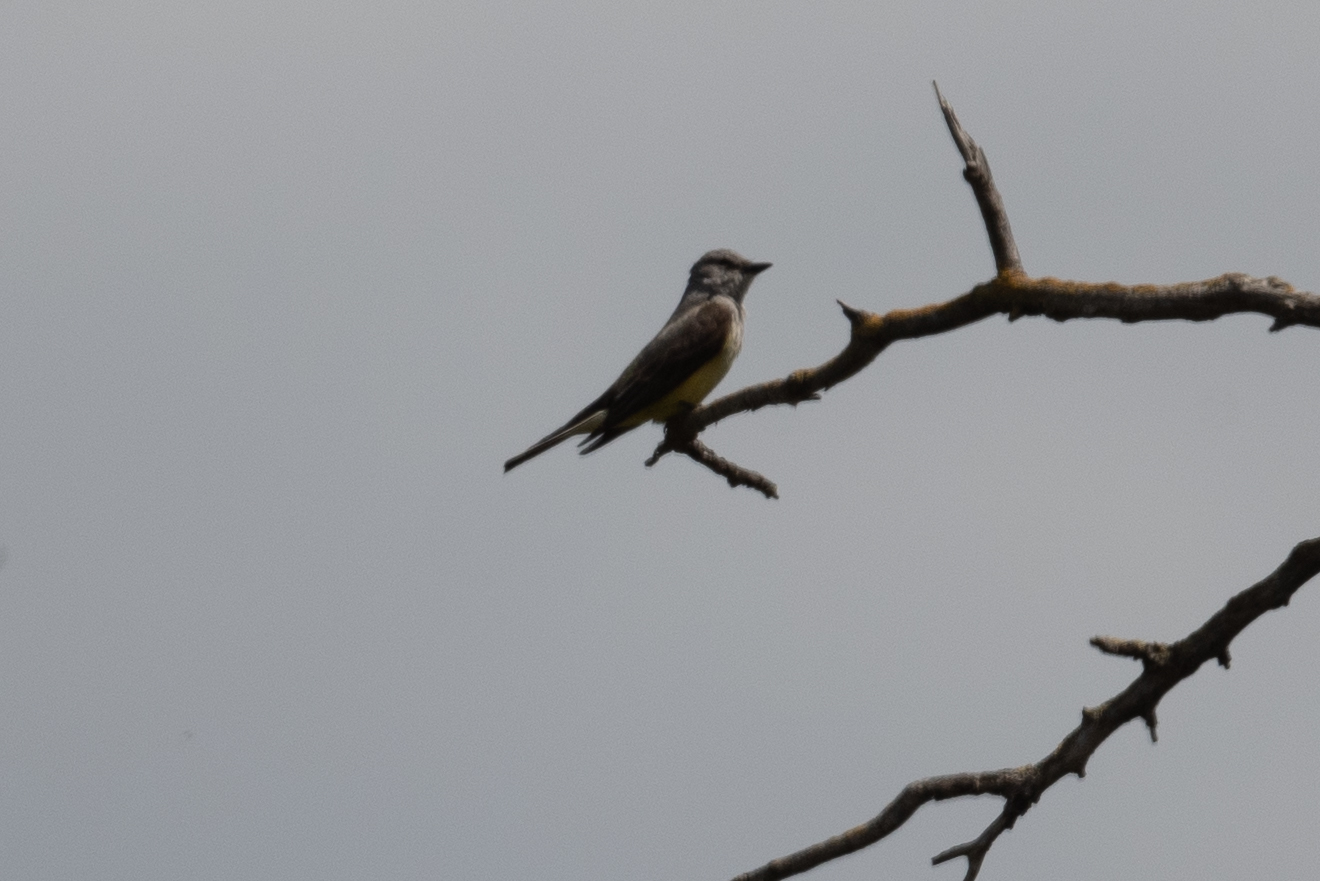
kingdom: Animalia
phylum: Chordata
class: Aves
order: Passeriformes
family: Tyrannidae
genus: Tyrannus
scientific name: Tyrannus verticalis
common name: Western kingbird
